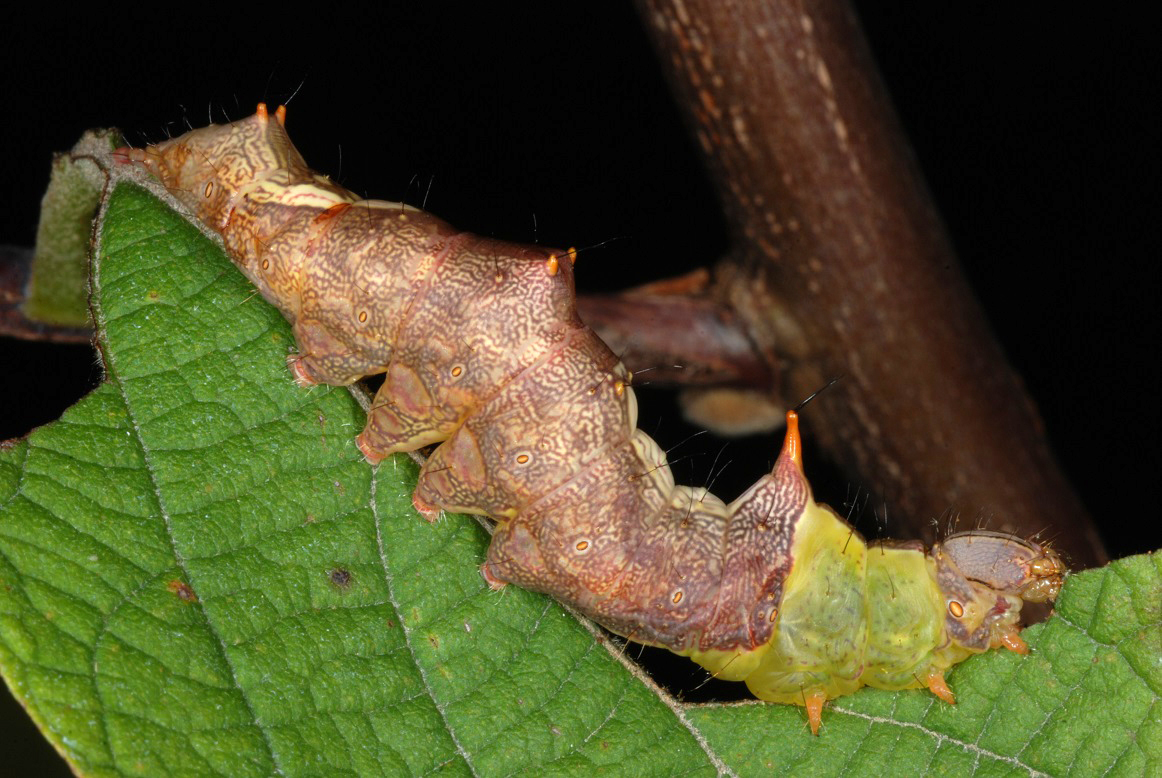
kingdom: Animalia
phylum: Arthropoda
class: Insecta
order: Lepidoptera
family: Notodontidae
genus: Schizura
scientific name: Schizura ipomaeae
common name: Morning-glory prominent
